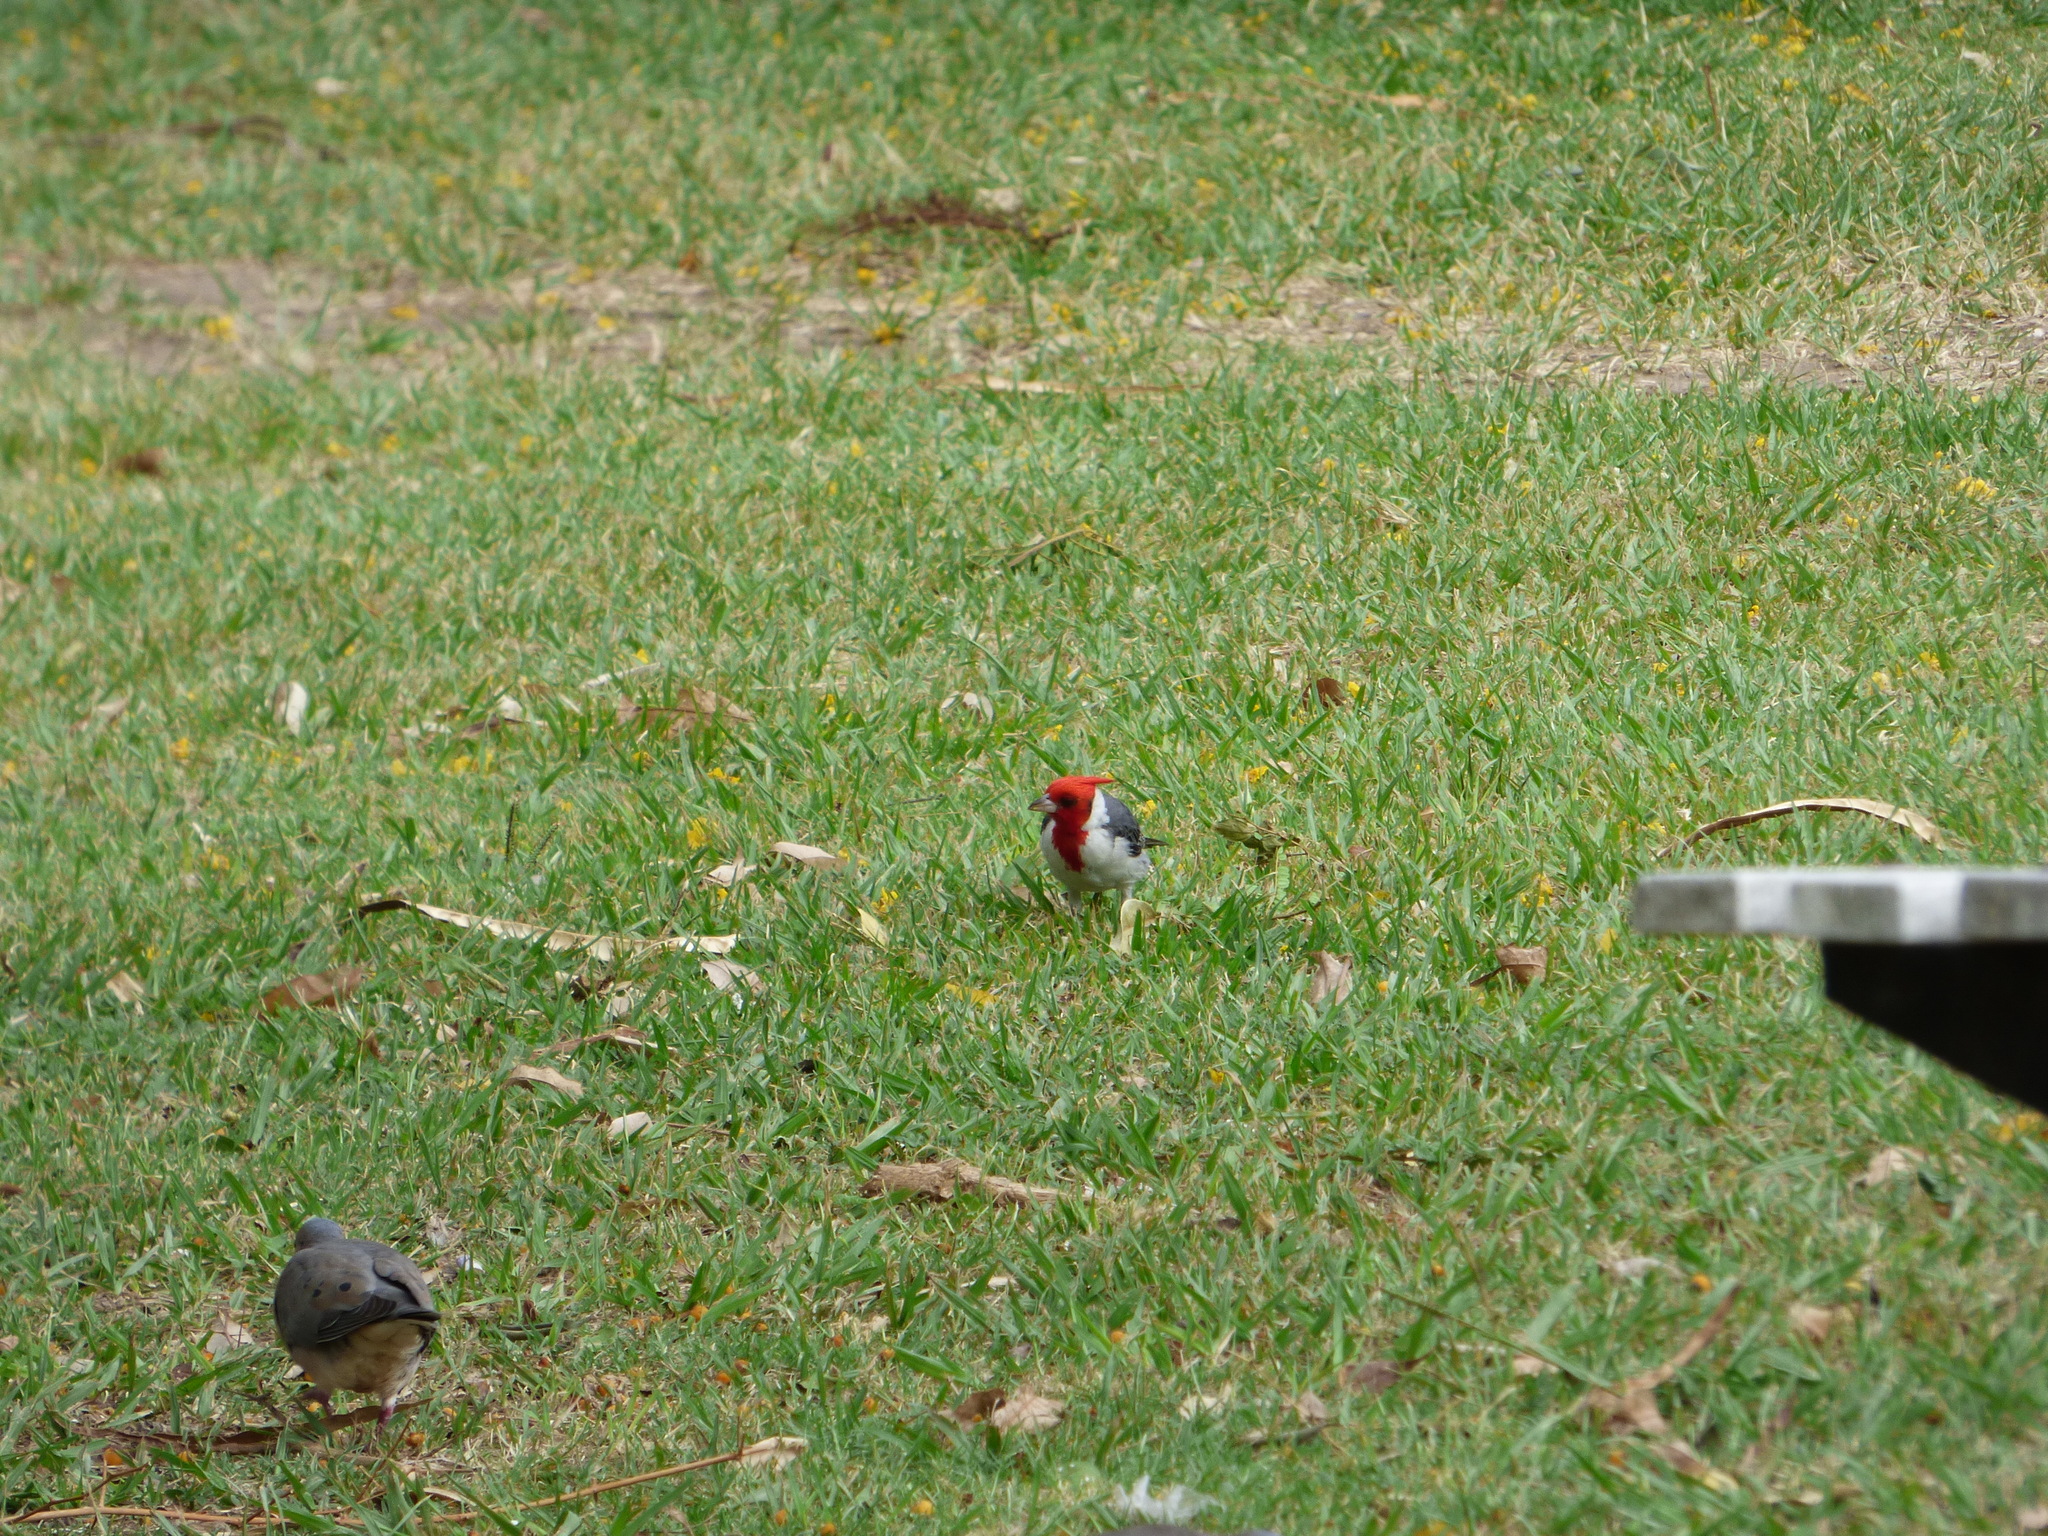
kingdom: Animalia
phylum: Chordata
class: Aves
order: Passeriformes
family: Thraupidae
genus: Paroaria
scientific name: Paroaria coronata
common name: Red-crested cardinal
